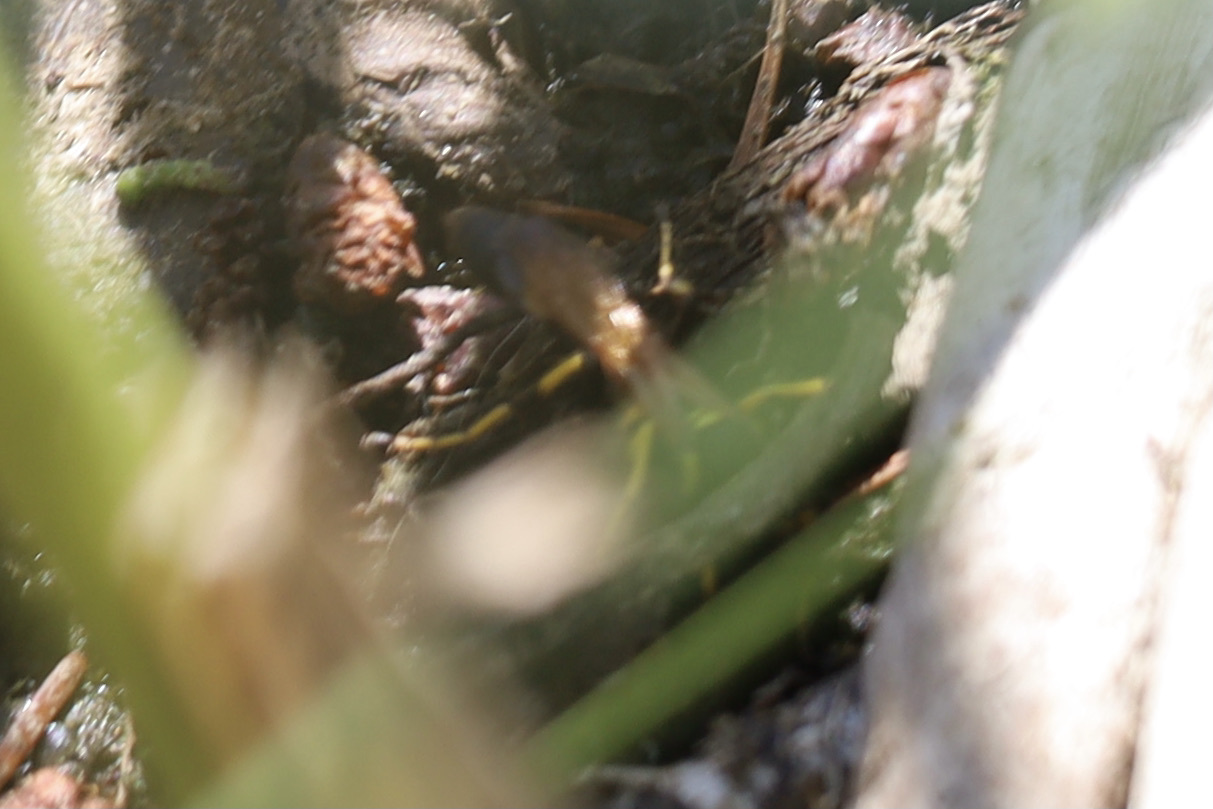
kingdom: Animalia
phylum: Arthropoda
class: Insecta
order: Hymenoptera
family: Sphecidae
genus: Sceliphron
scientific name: Sceliphron caementarium
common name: Mud dauber
